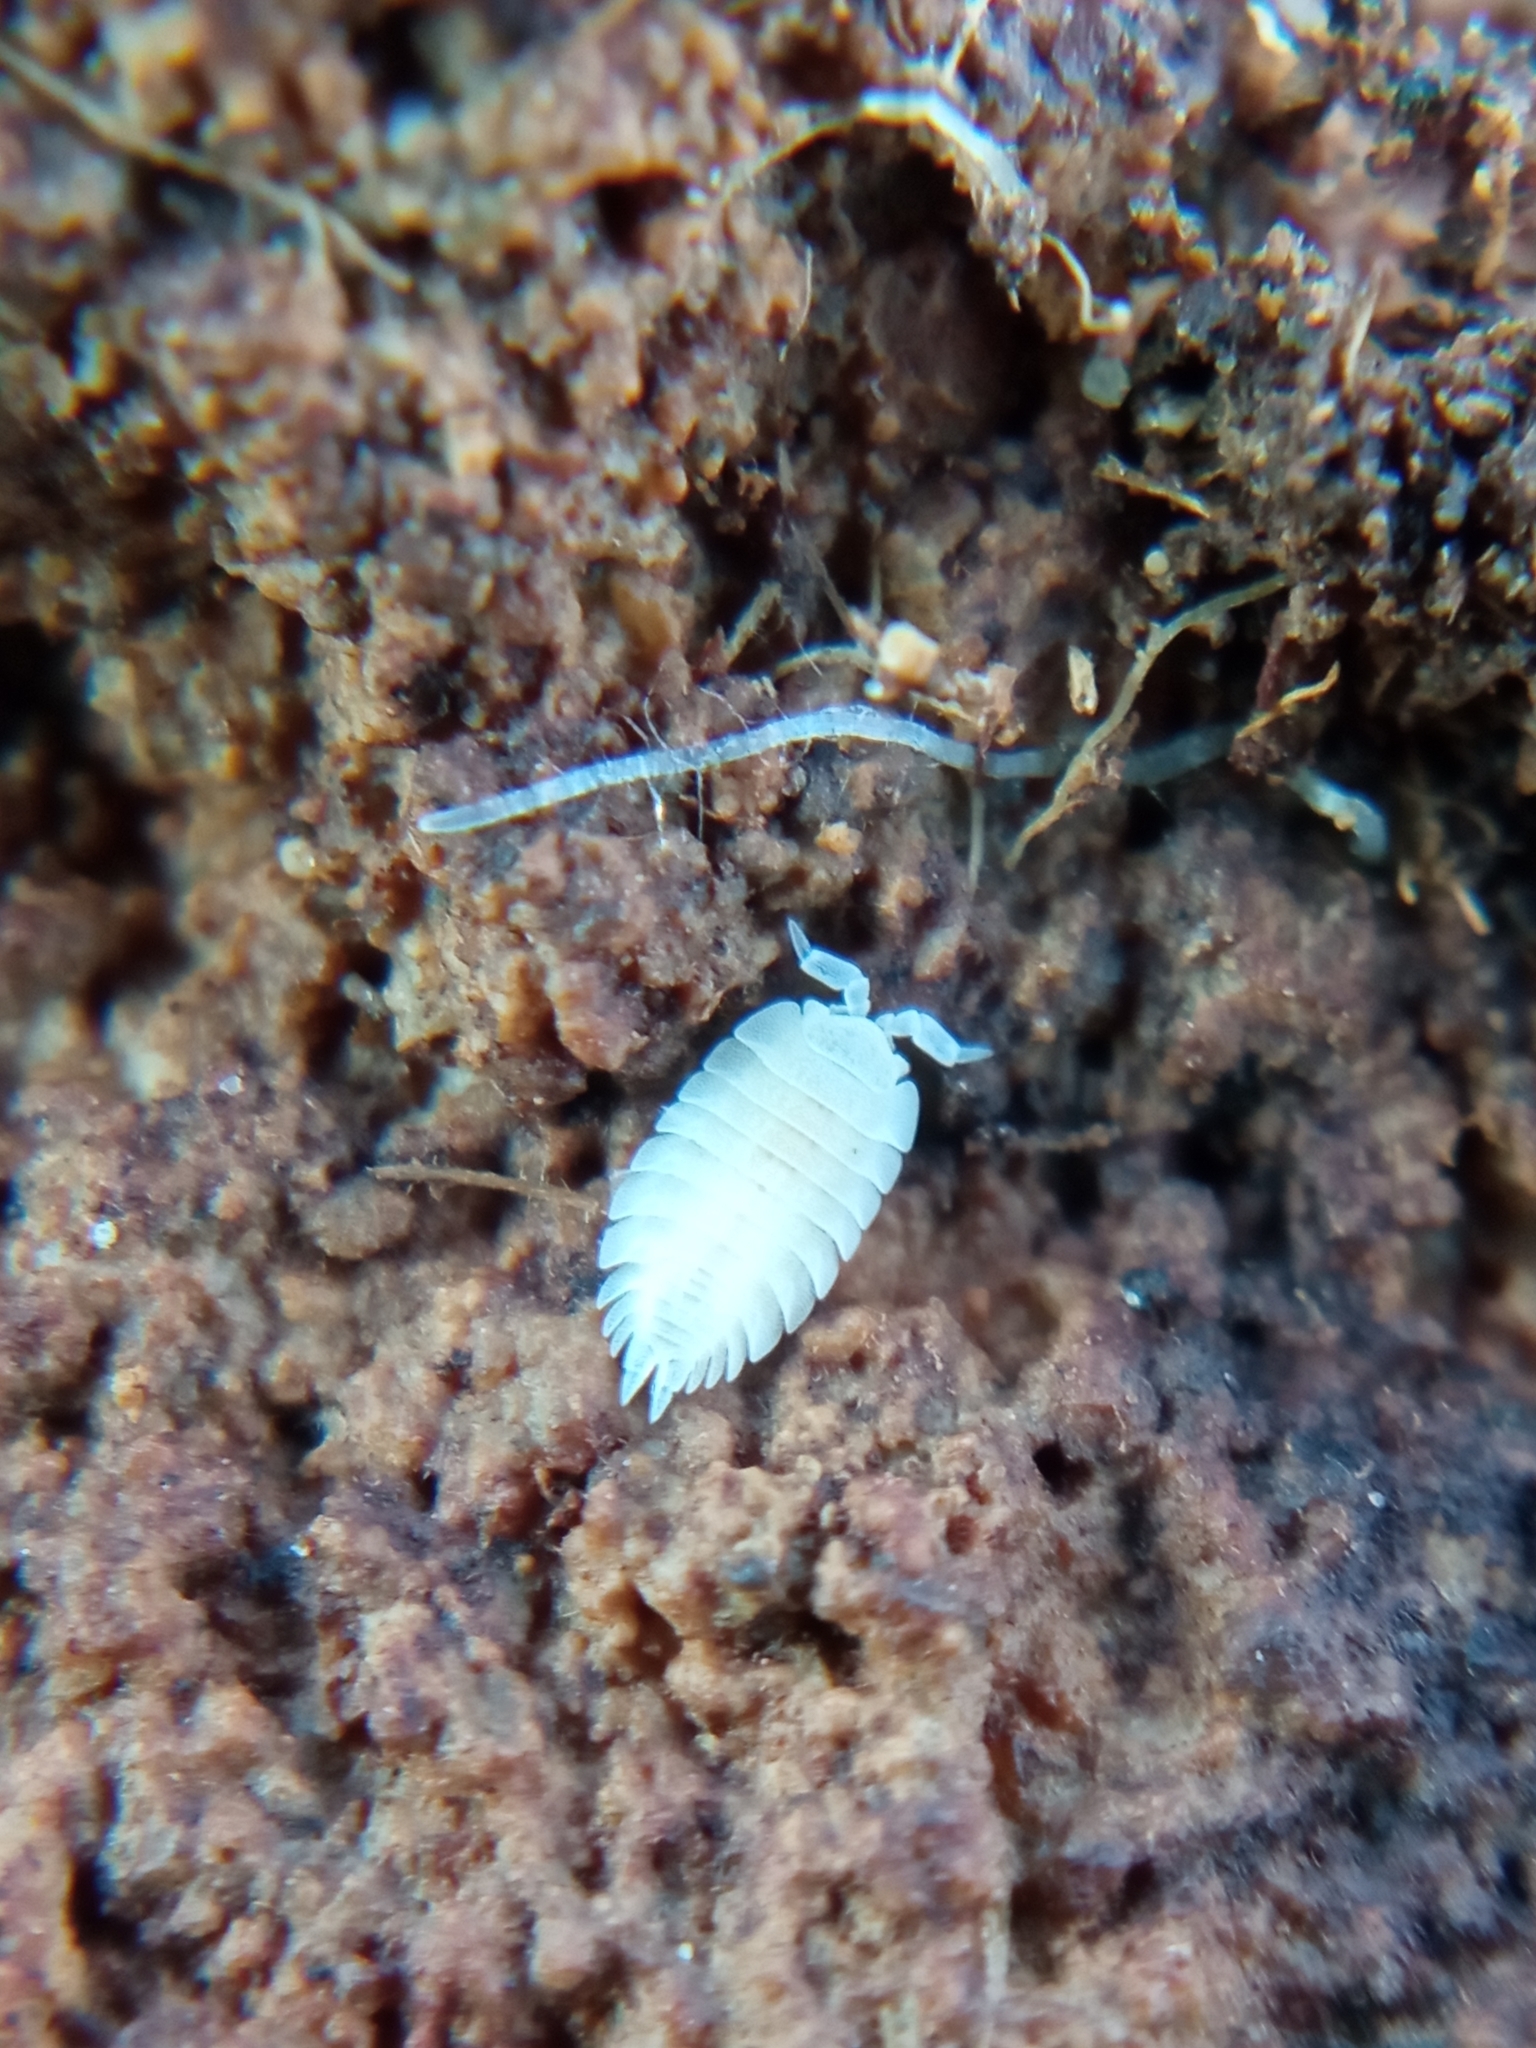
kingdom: Animalia
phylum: Arthropoda
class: Malacostraca
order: Isopoda
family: Platyarthridae
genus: Platyarthrus
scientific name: Platyarthrus hoffmannseggii
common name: Ant woodlouse
